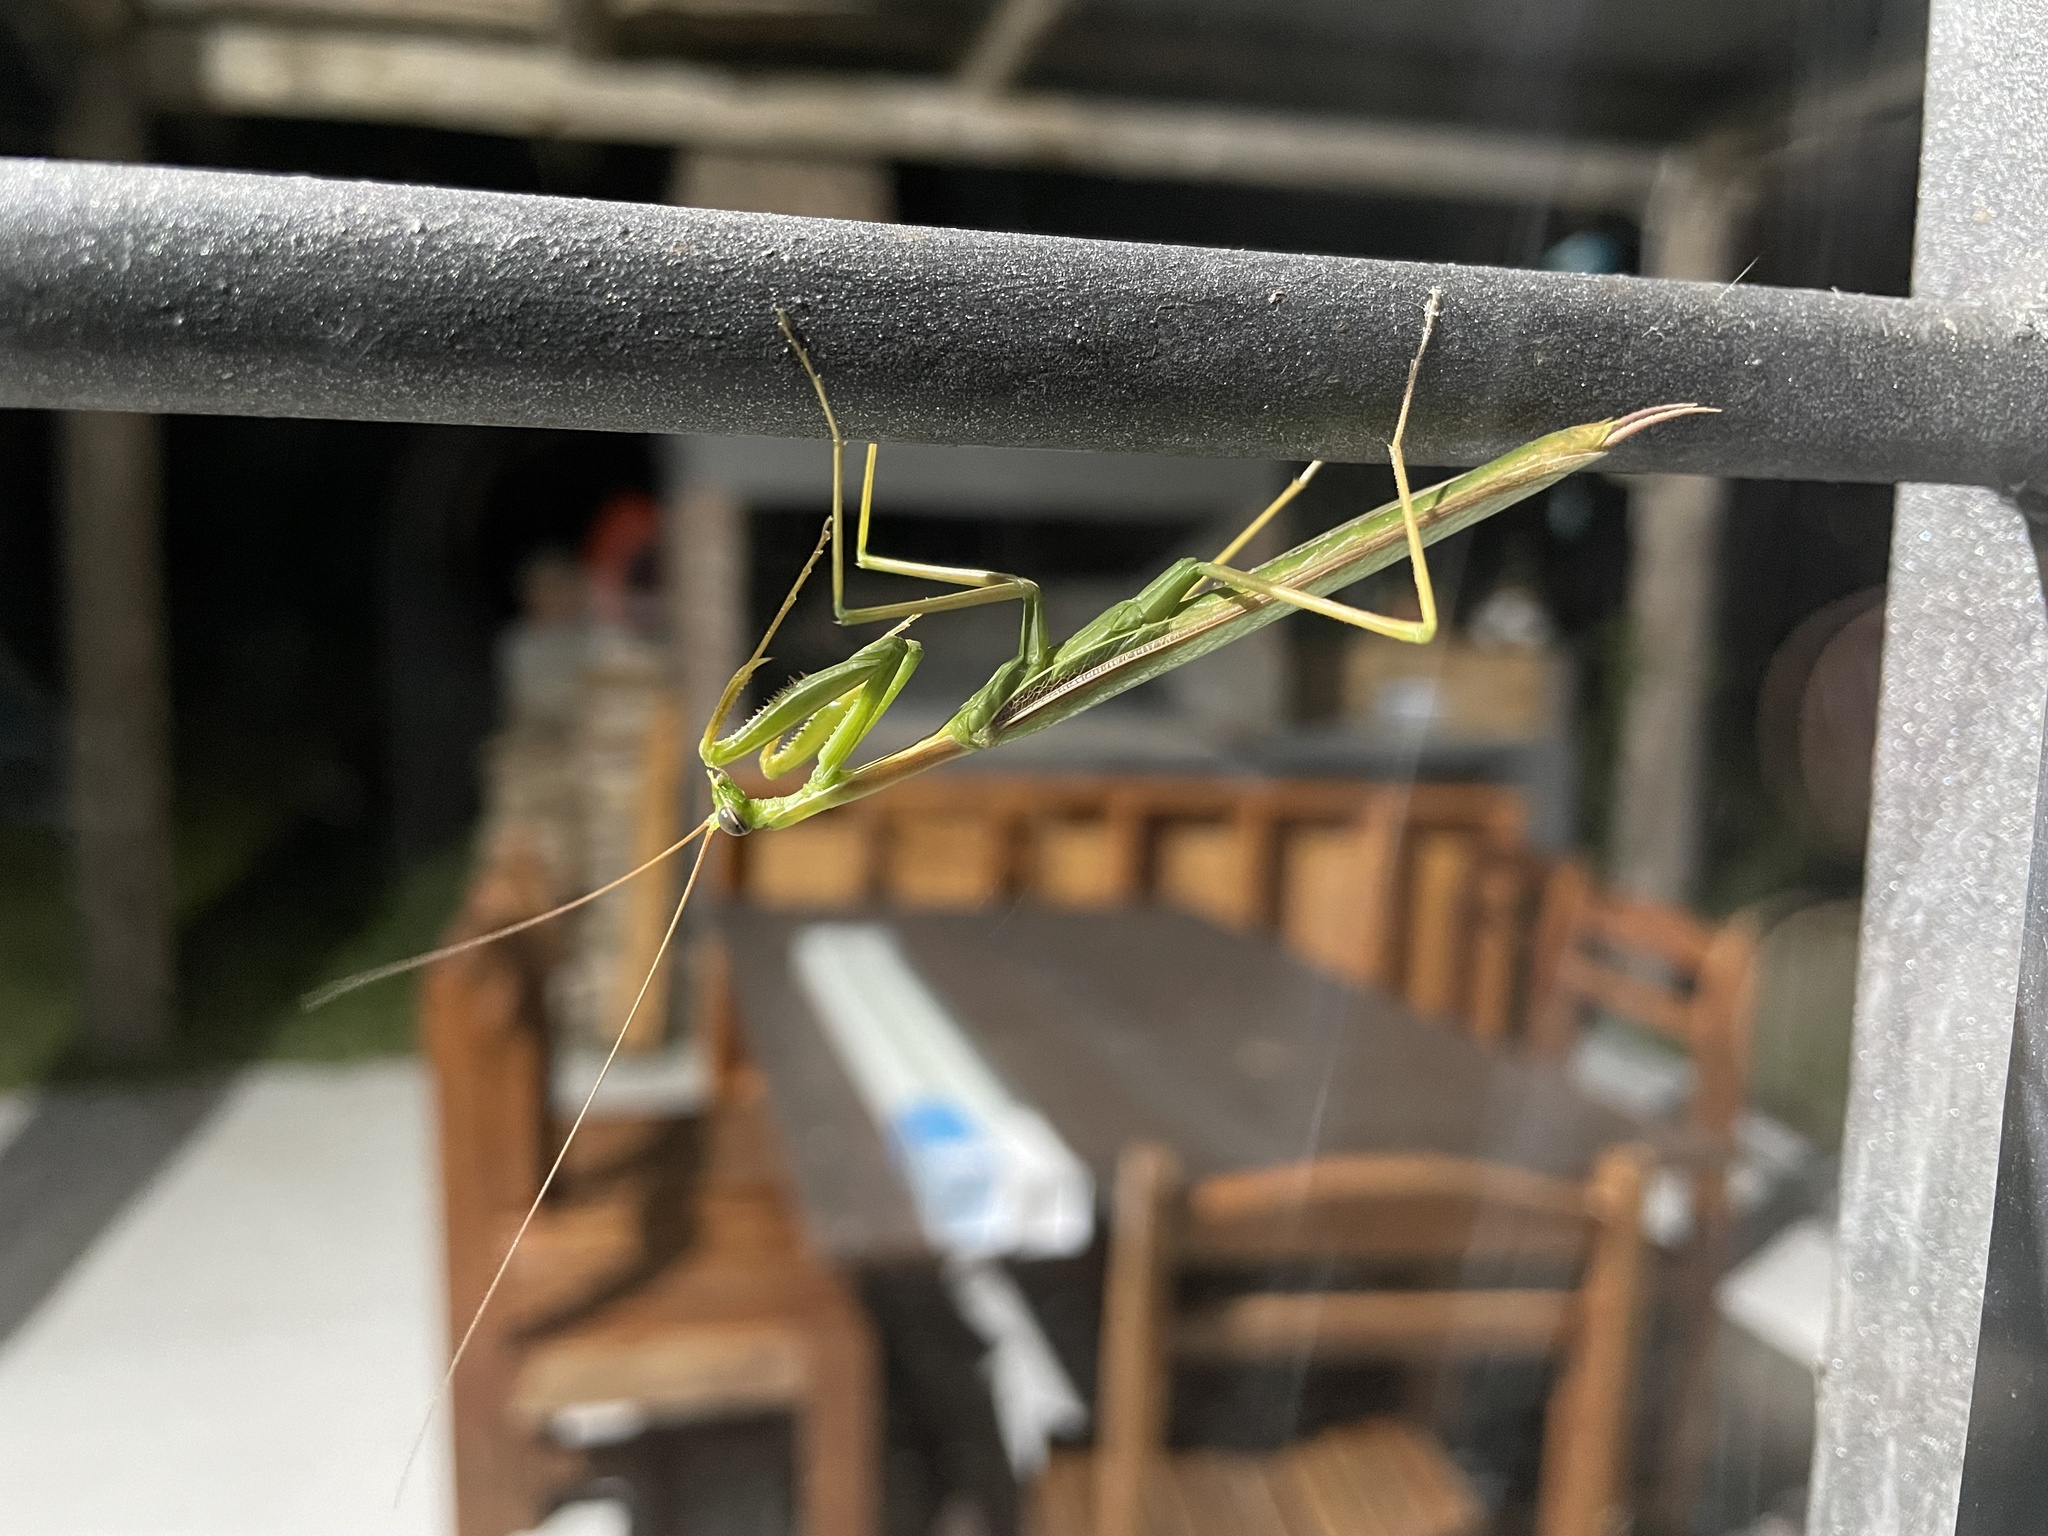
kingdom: Animalia
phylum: Arthropoda
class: Insecta
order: Mantodea
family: Coptopterygidae
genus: Coptopteryx
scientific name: Coptopteryx argentina
